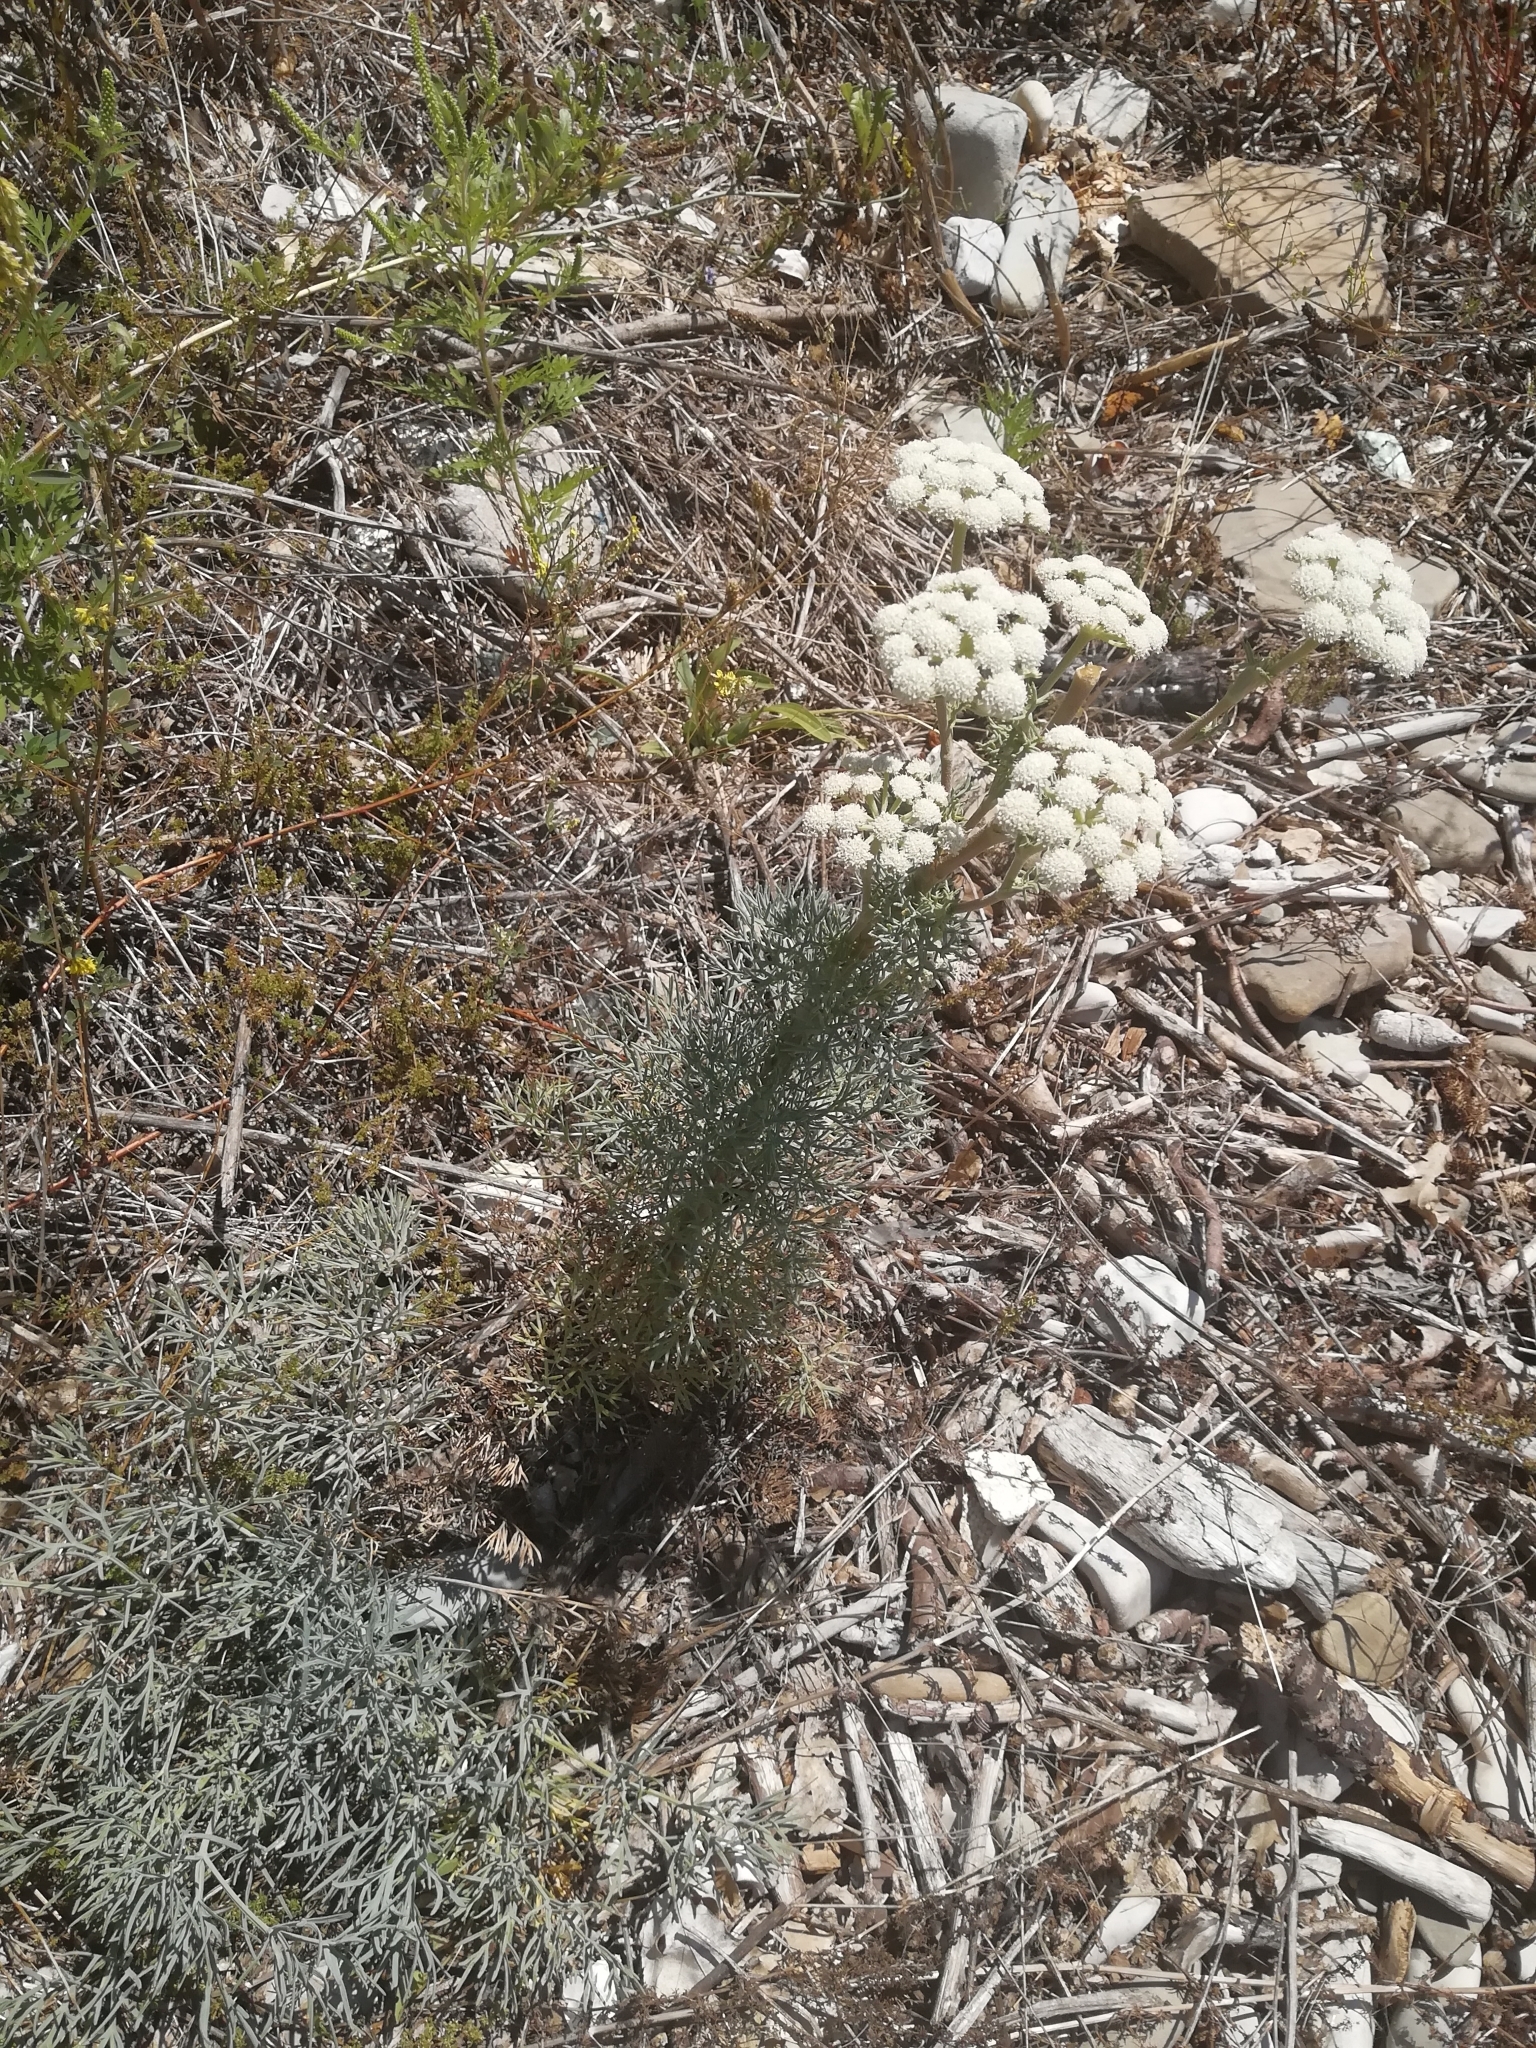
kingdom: Plantae
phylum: Tracheophyta
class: Magnoliopsida
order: Apiales
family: Apiaceae
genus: Seseli
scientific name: Seseli ponticum
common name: Pontic seseli
